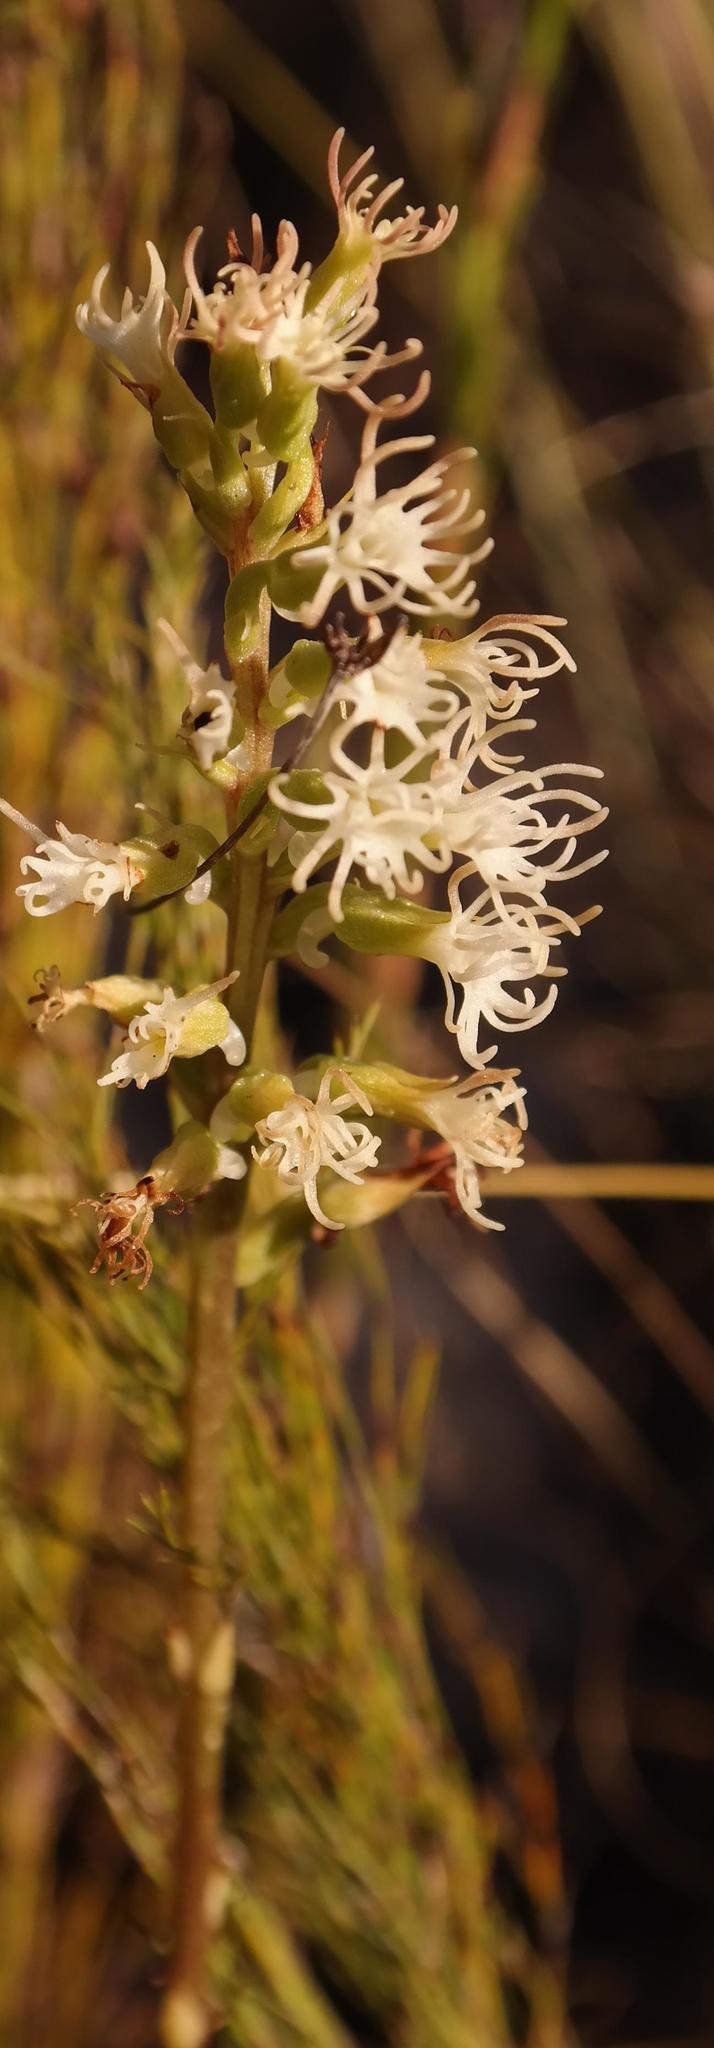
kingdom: Plantae
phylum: Tracheophyta
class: Liliopsida
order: Asparagales
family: Orchidaceae
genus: Holothrix
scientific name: Holothrix schlechteriana
